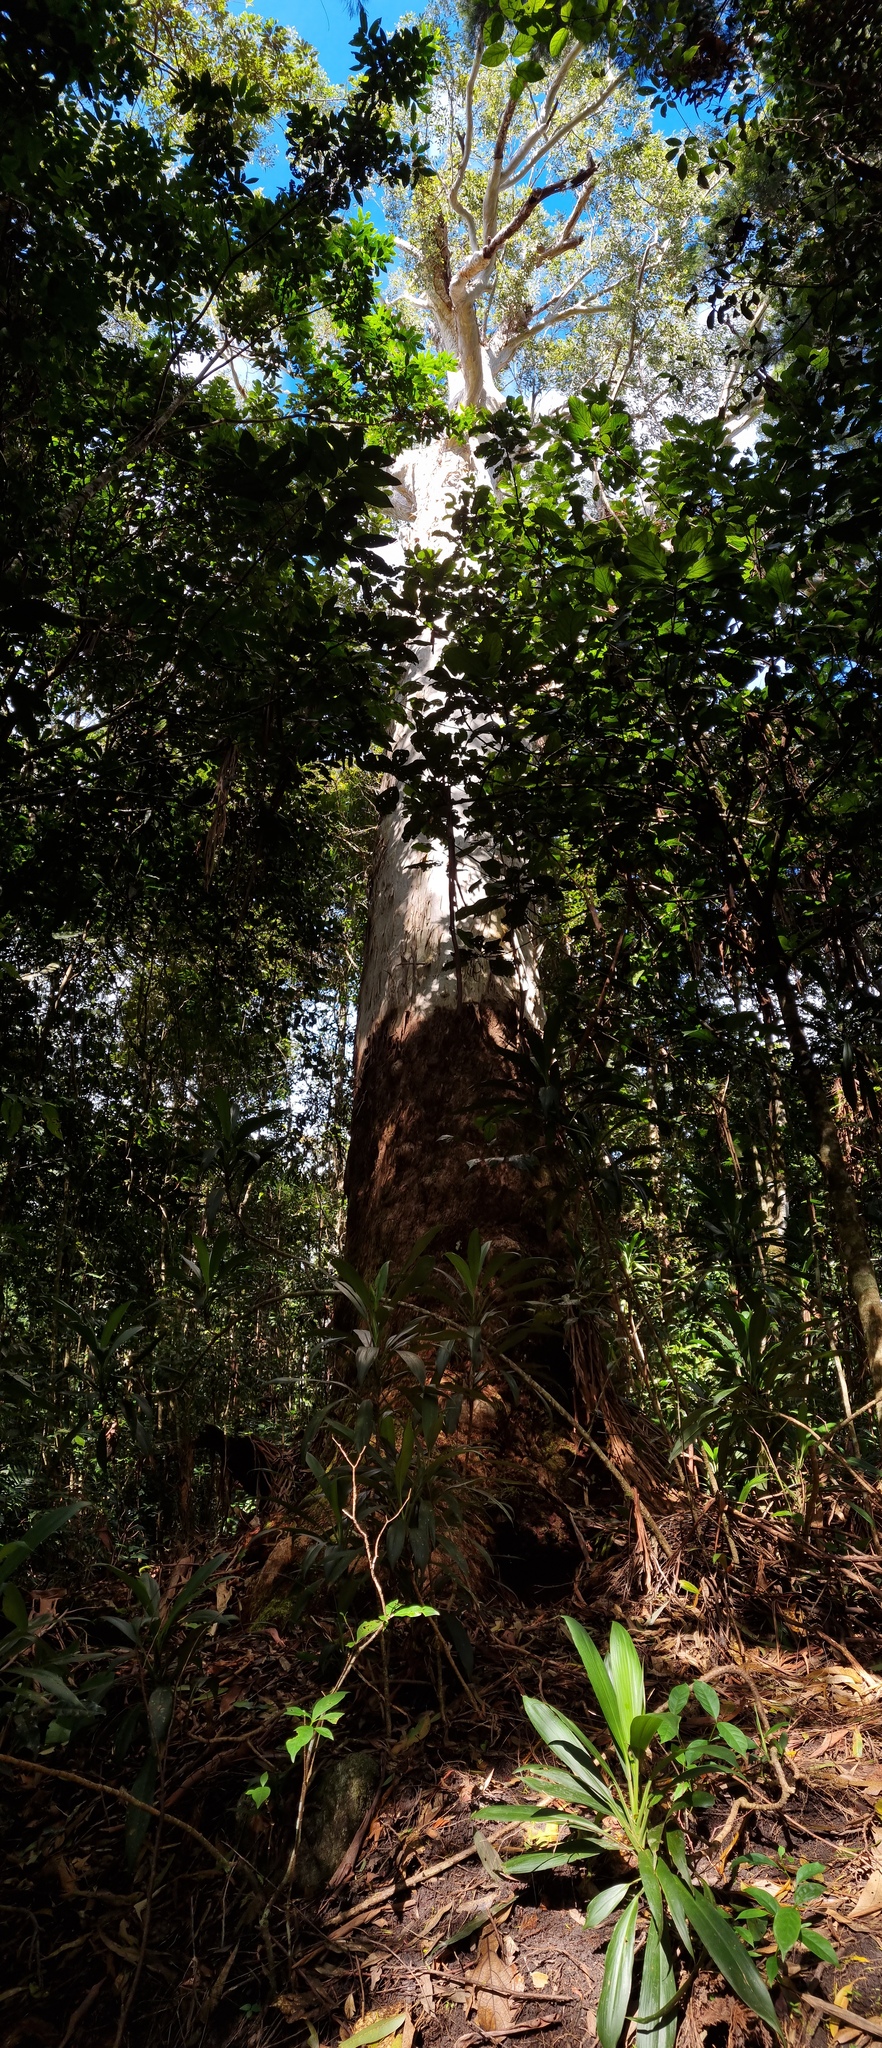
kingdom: Plantae
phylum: Tracheophyta
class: Magnoliopsida
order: Myrtales
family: Myrtaceae
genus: Eucalyptus
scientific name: Eucalyptus grandis
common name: Grand eucalyptus
